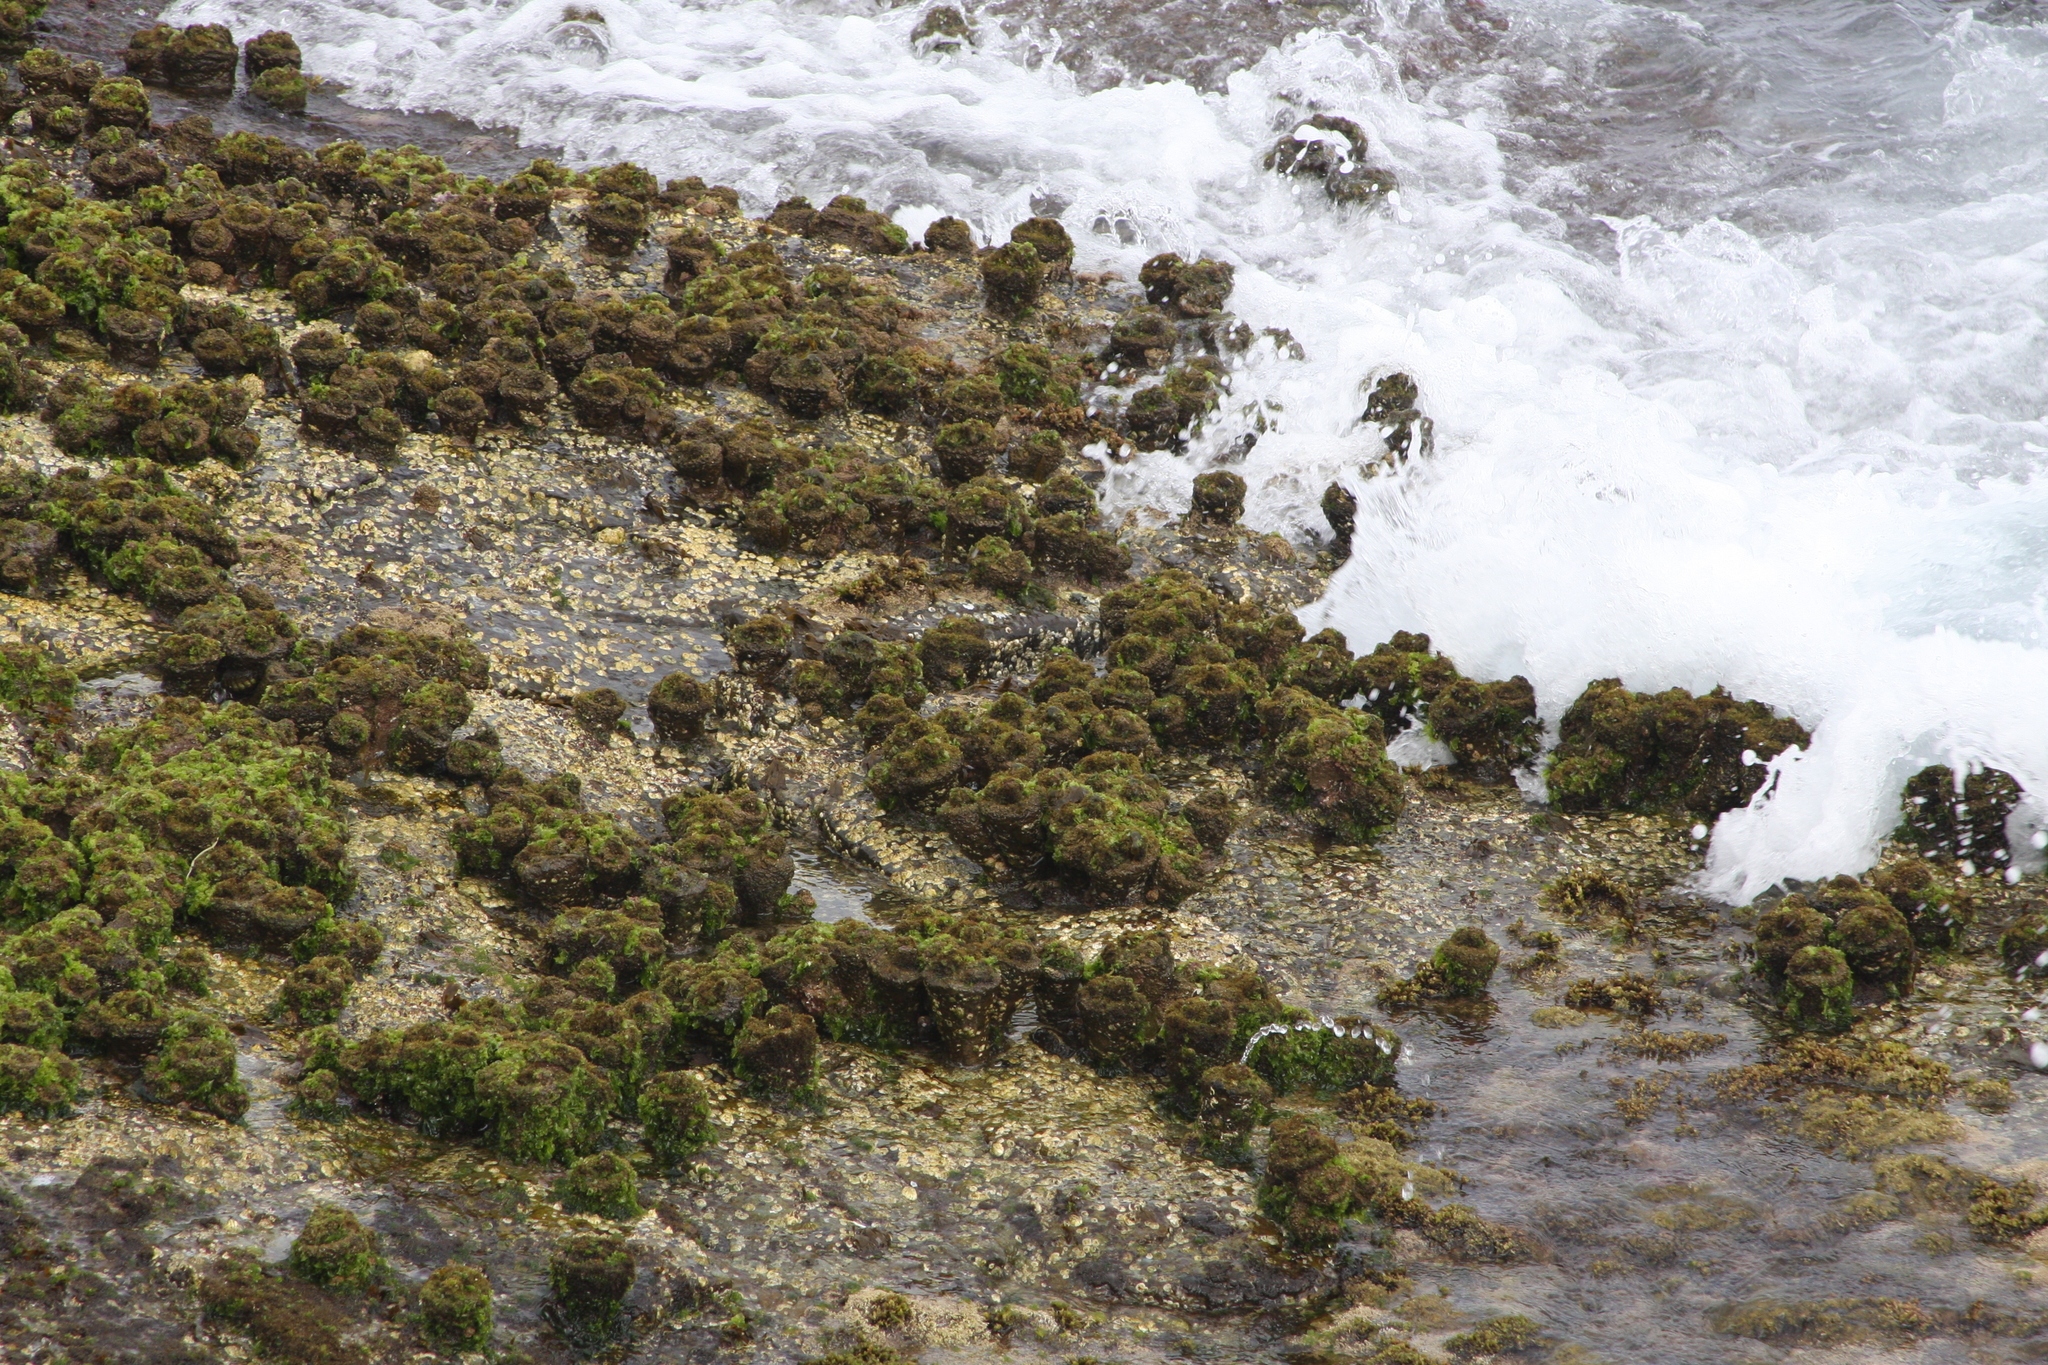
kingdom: Animalia
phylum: Chordata
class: Ascidiacea
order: Stolidobranchia
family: Pyuridae
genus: Pyura
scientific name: Pyura praeputialis
